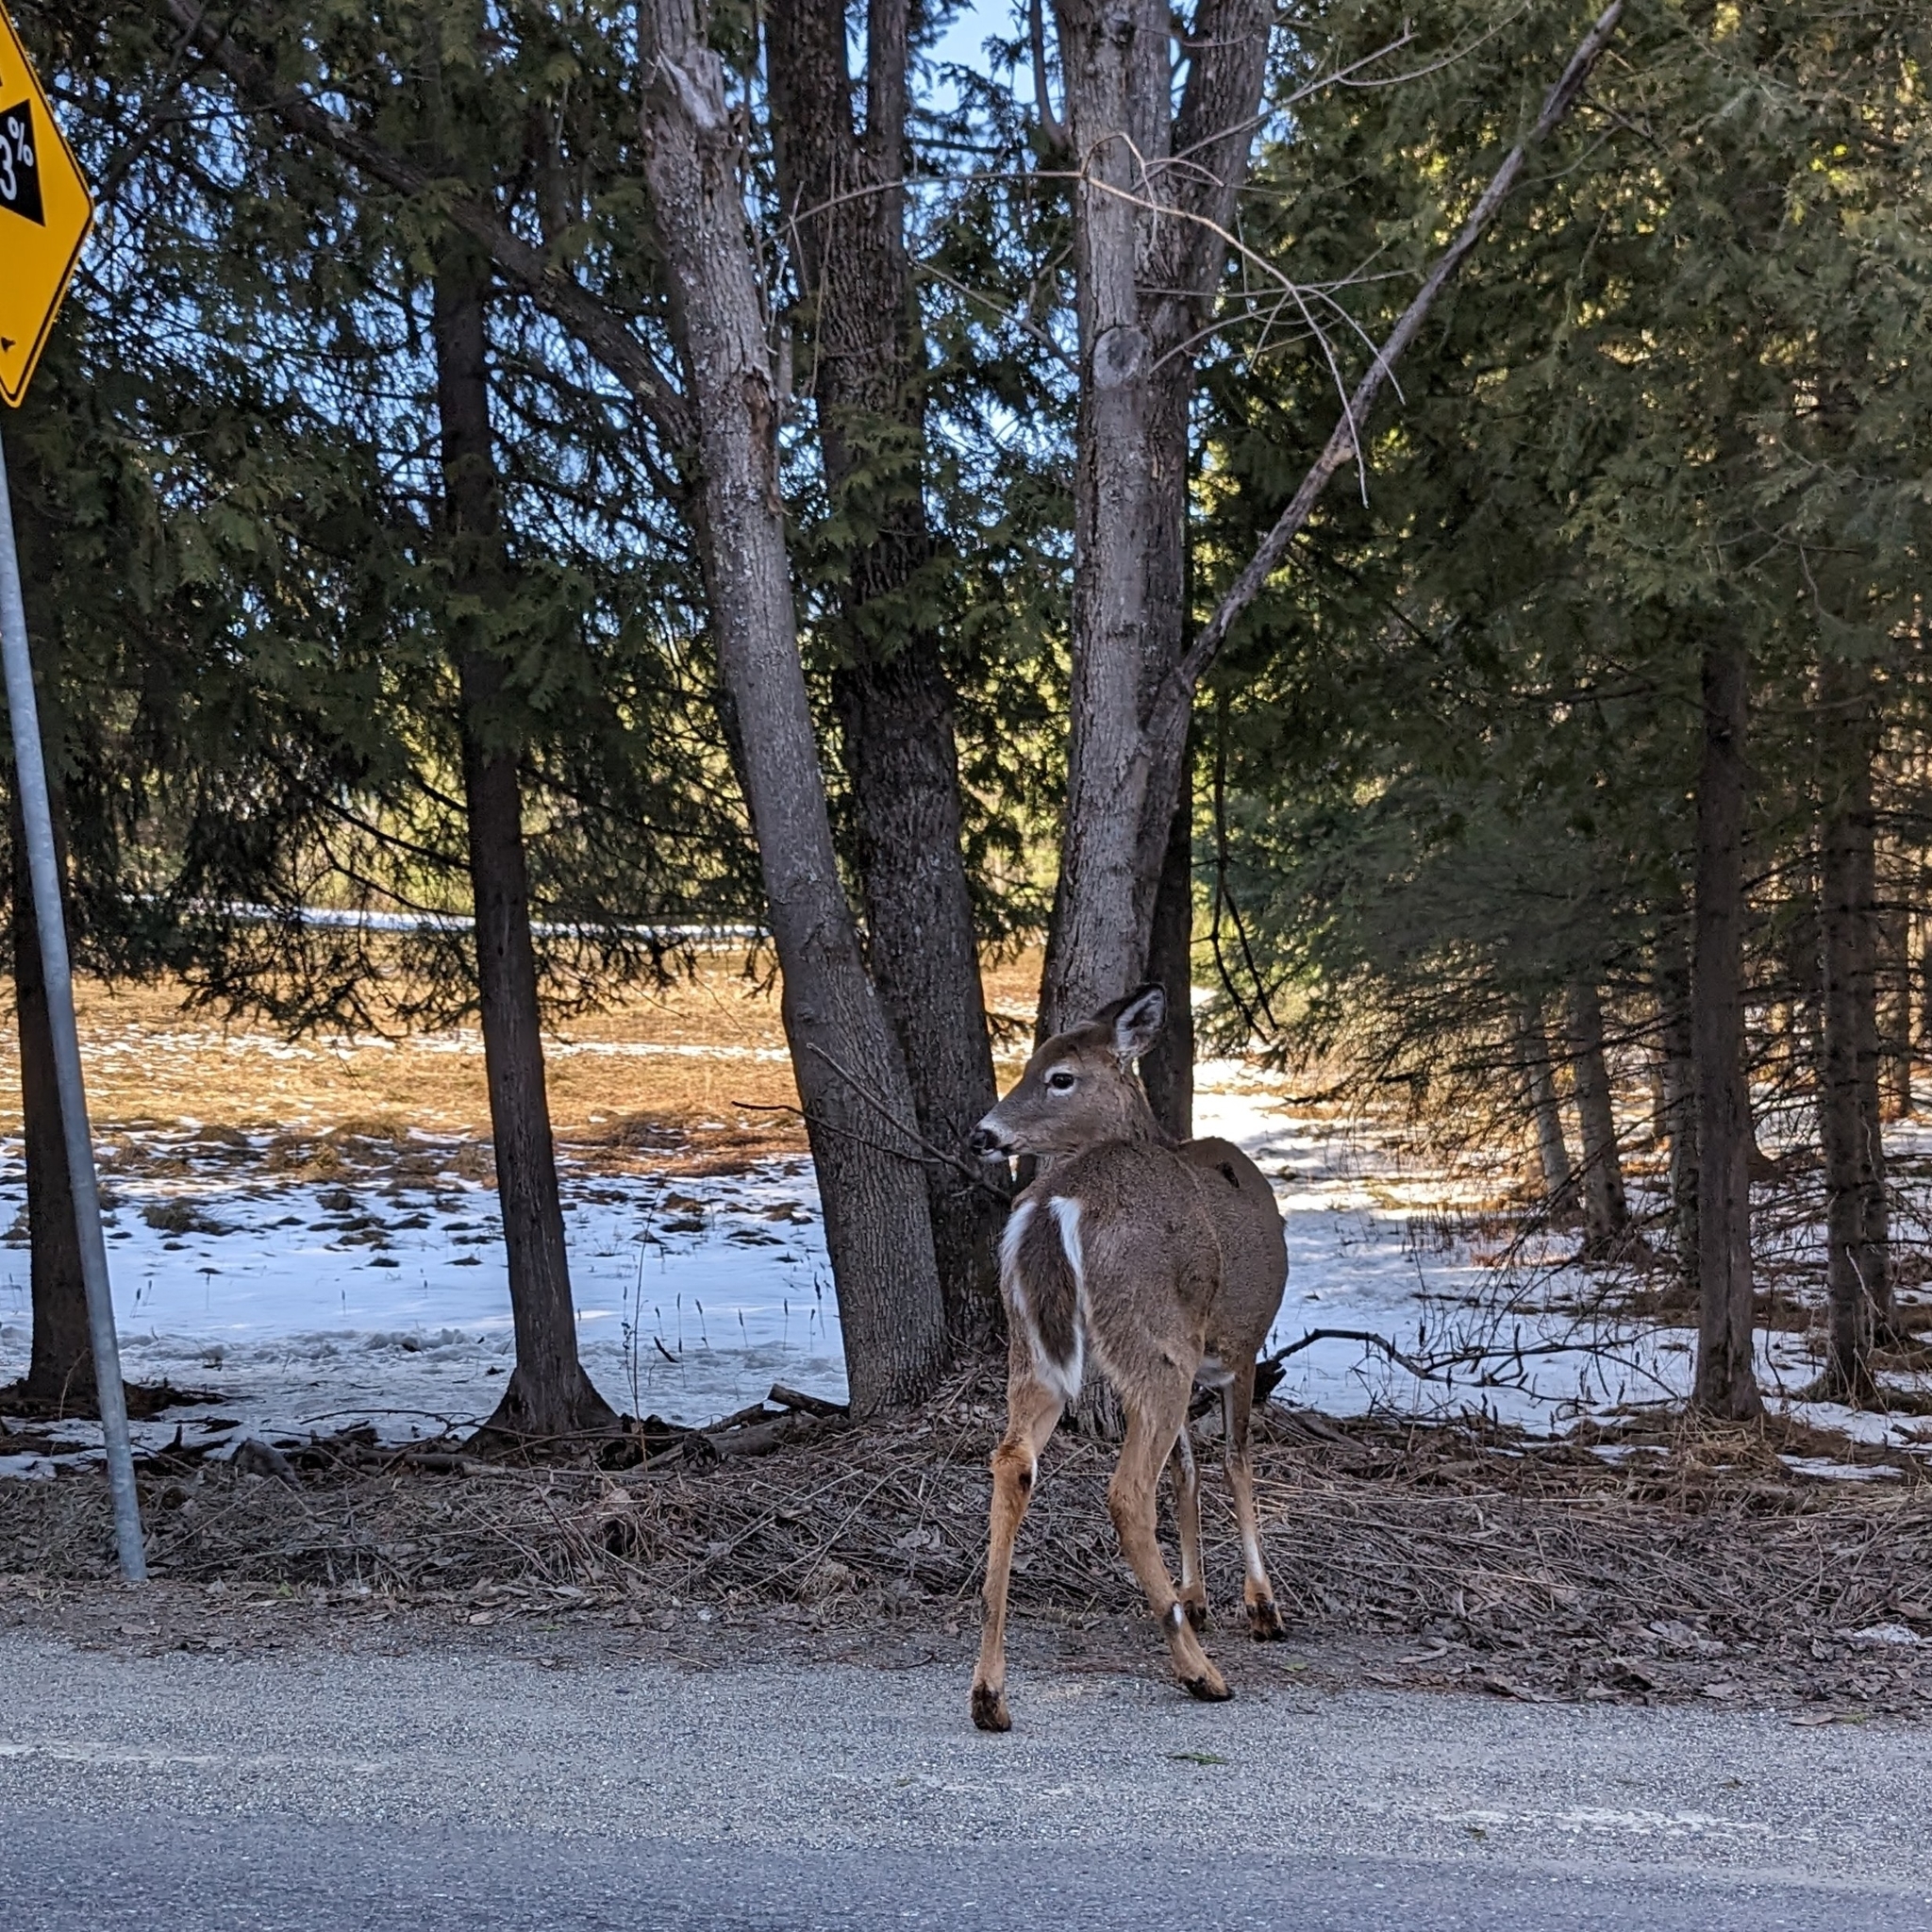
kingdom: Animalia
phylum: Chordata
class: Mammalia
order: Artiodactyla
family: Cervidae
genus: Odocoileus
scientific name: Odocoileus virginianus
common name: White-tailed deer
